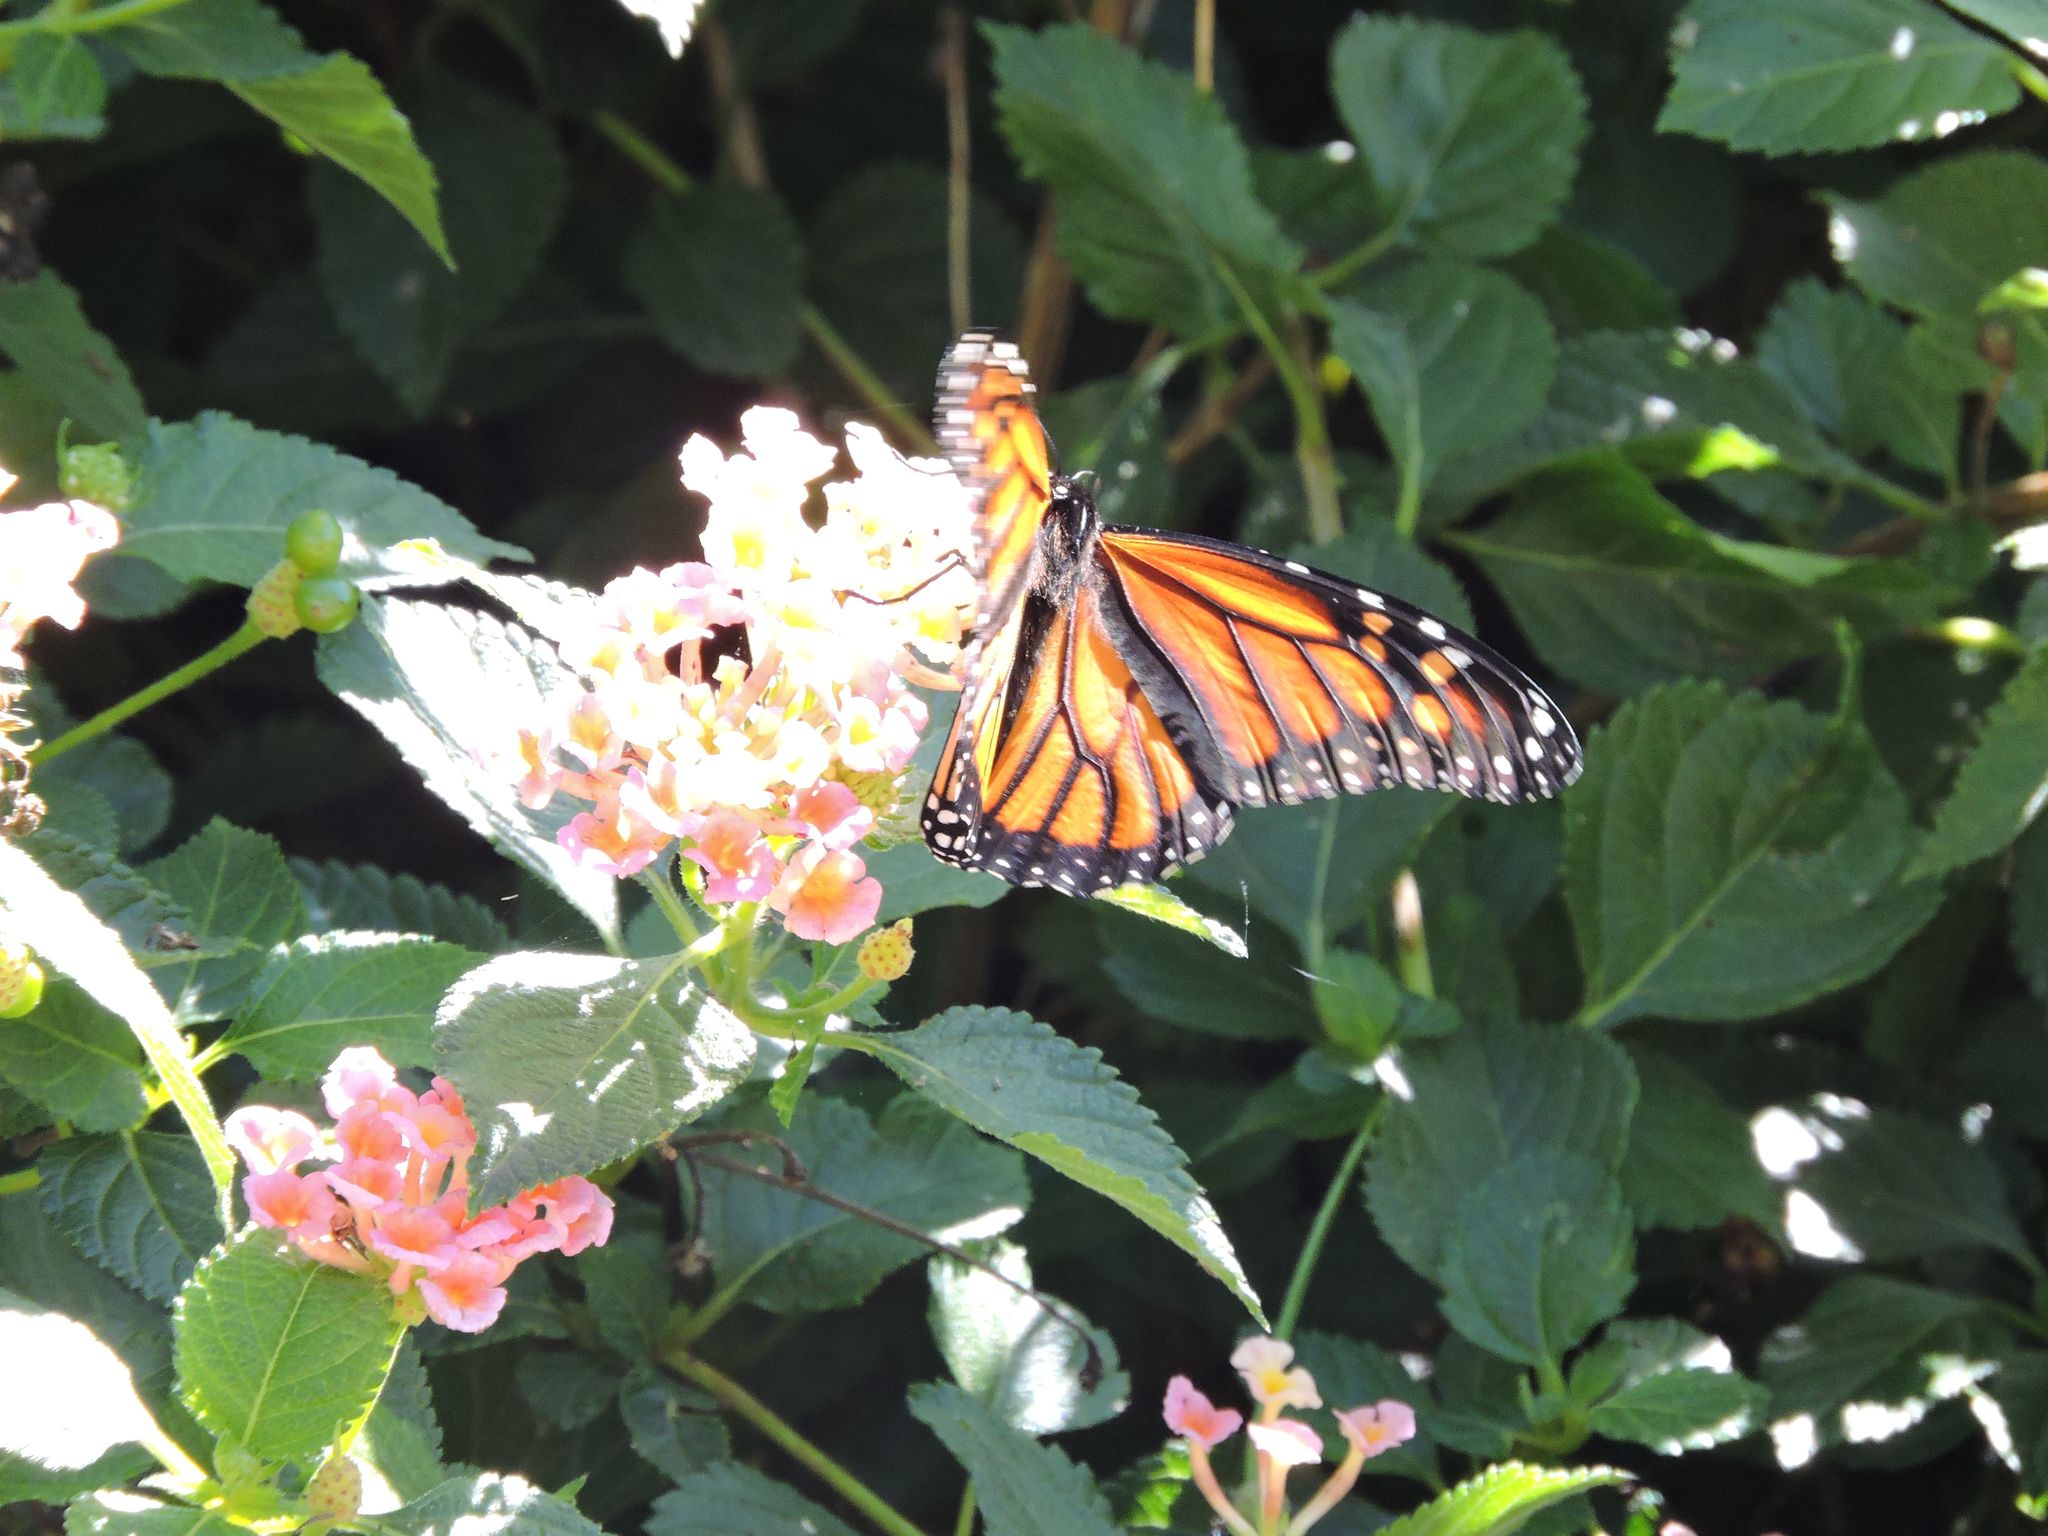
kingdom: Animalia
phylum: Arthropoda
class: Insecta
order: Lepidoptera
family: Nymphalidae
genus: Danaus
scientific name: Danaus plexippus
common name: Monarch
